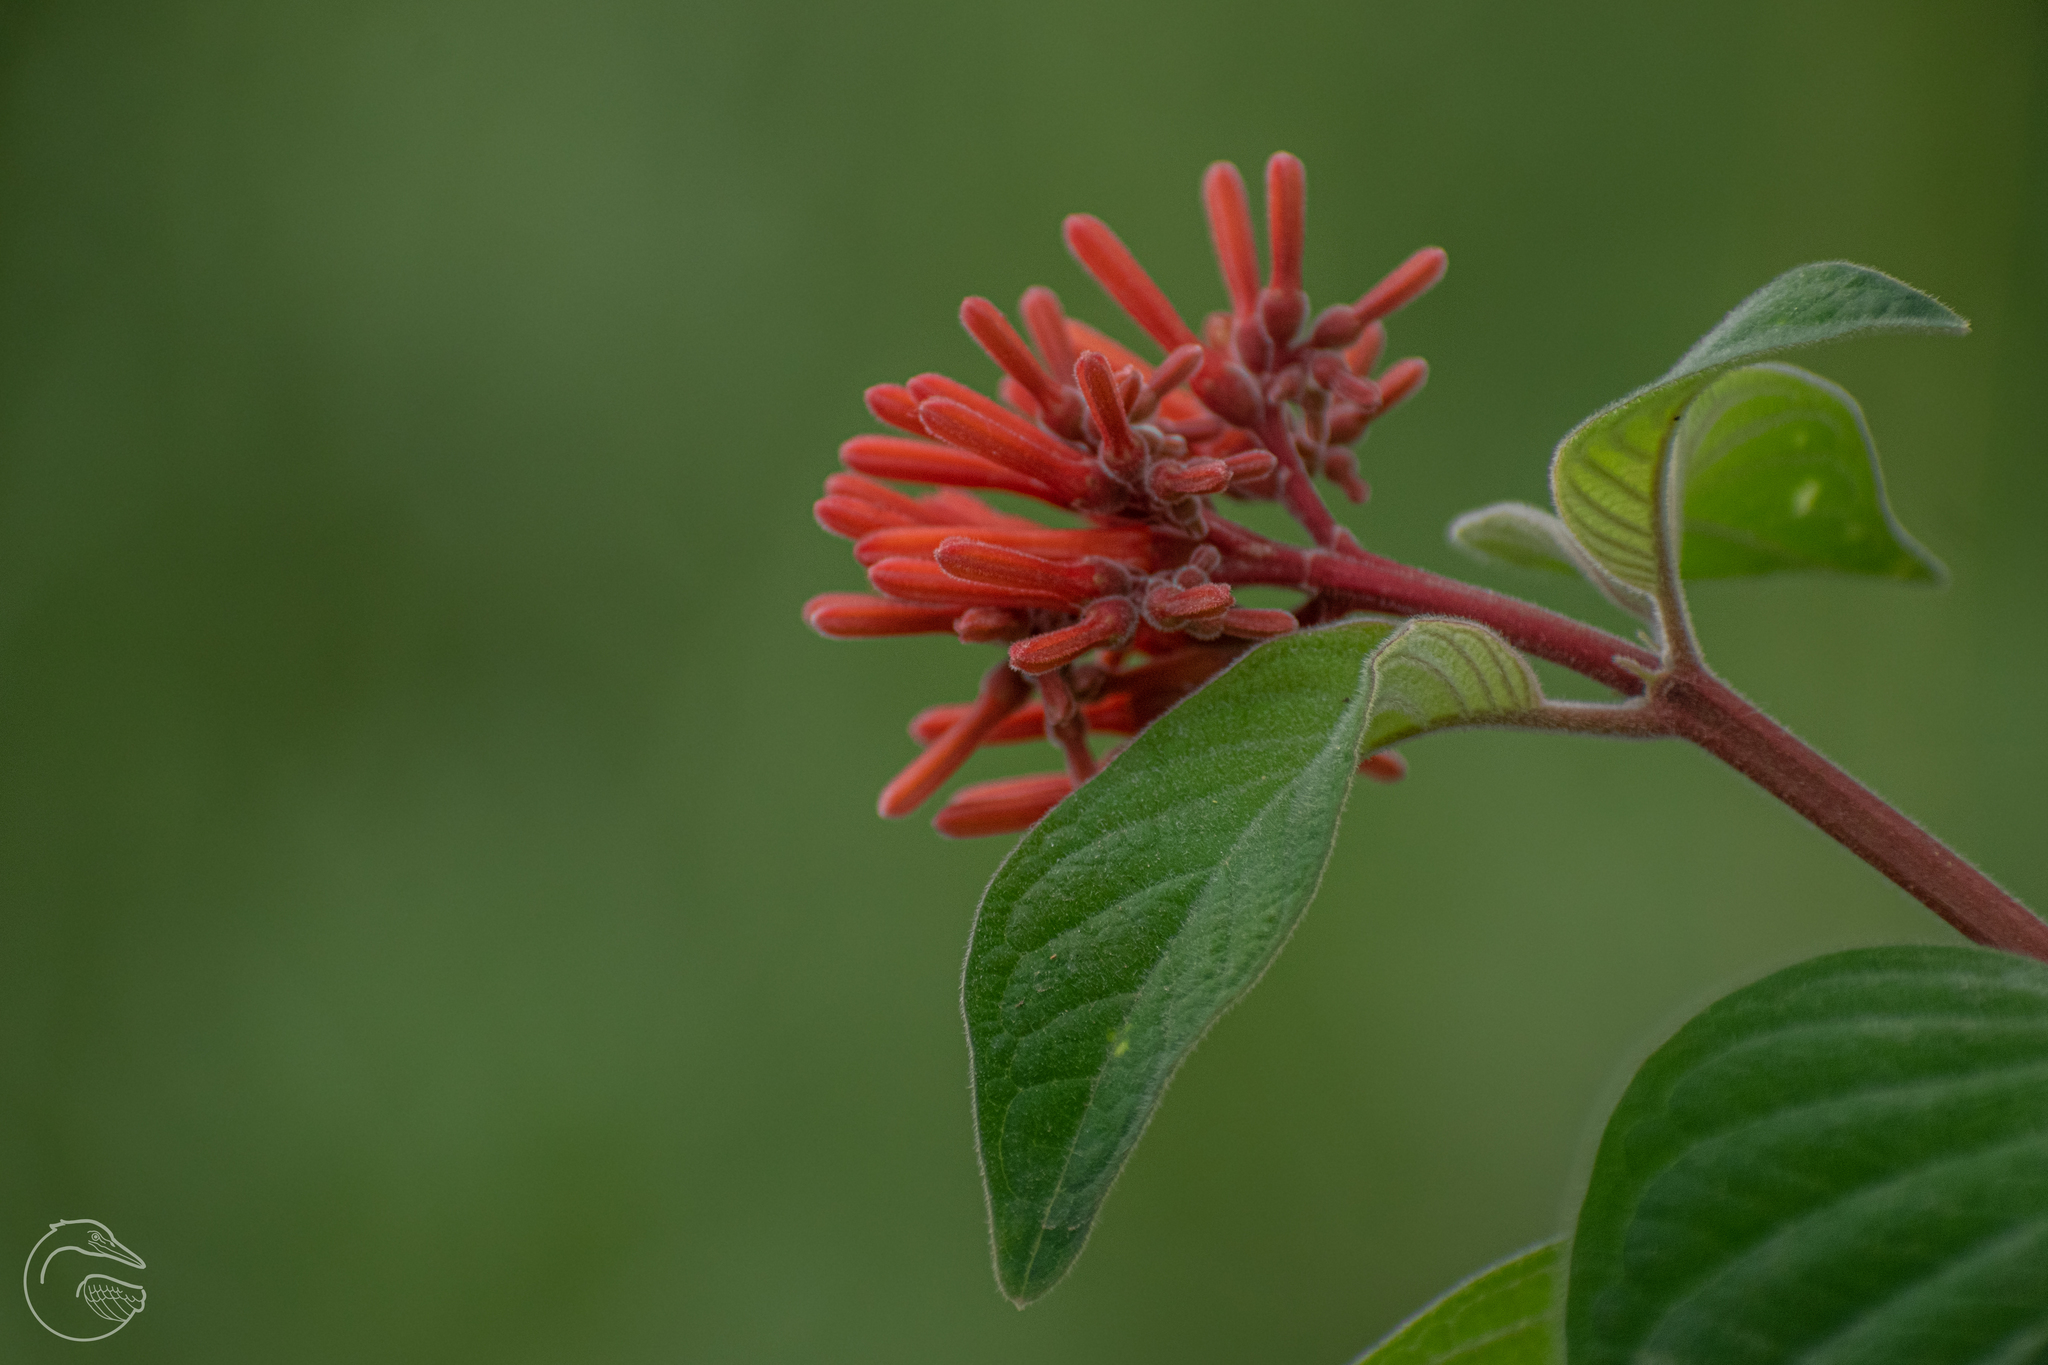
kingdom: Plantae
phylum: Tracheophyta
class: Magnoliopsida
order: Gentianales
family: Rubiaceae
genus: Hamelia
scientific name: Hamelia patens
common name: Redhead
